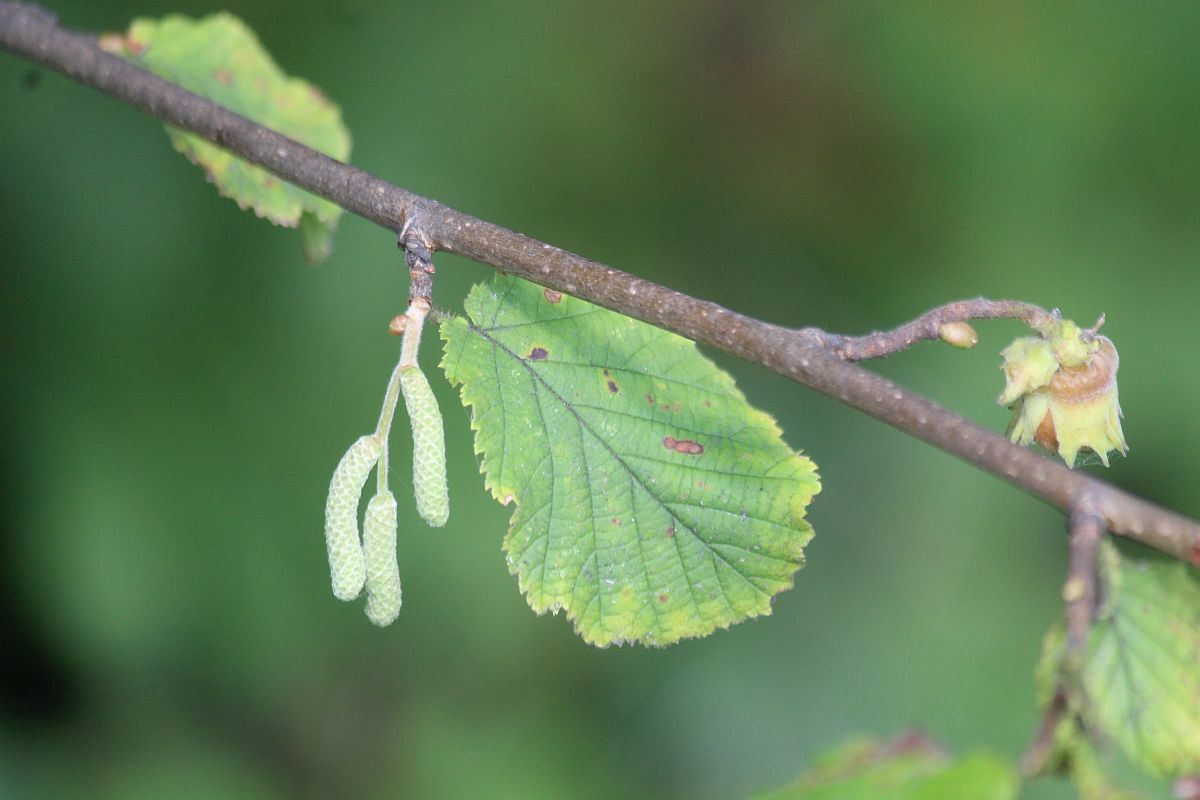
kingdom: Plantae
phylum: Tracheophyta
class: Magnoliopsida
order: Fagales
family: Betulaceae
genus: Corylus
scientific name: Corylus avellana
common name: European hazel
